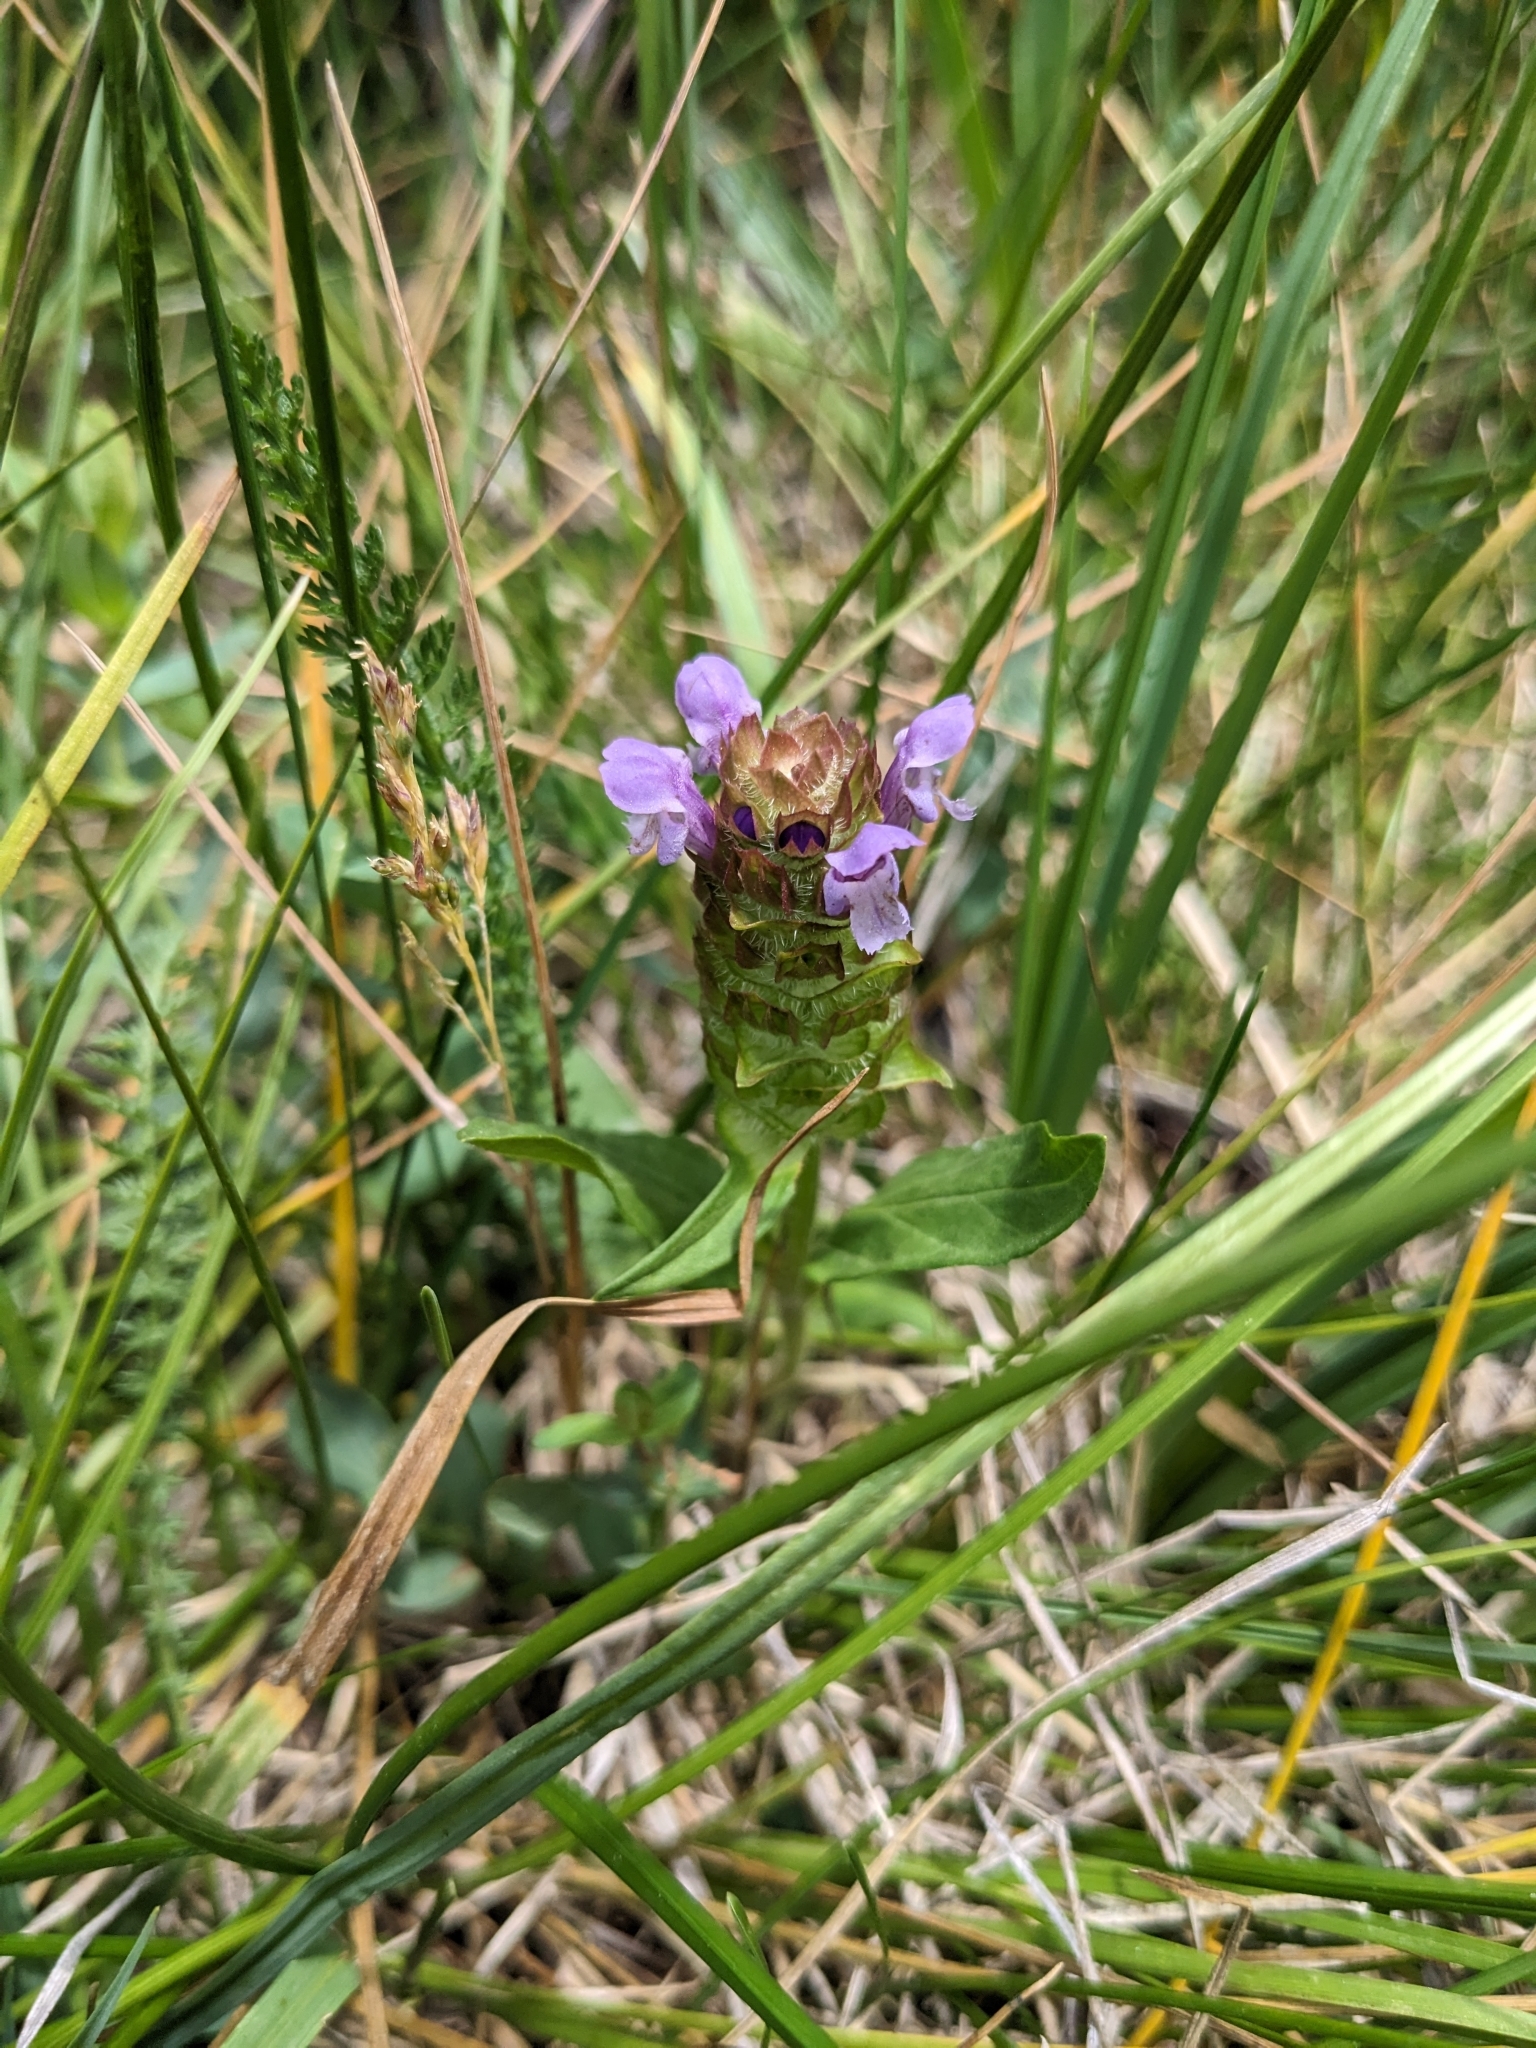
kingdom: Plantae
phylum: Tracheophyta
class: Magnoliopsida
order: Lamiales
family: Lamiaceae
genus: Prunella
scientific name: Prunella vulgaris
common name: Heal-all
